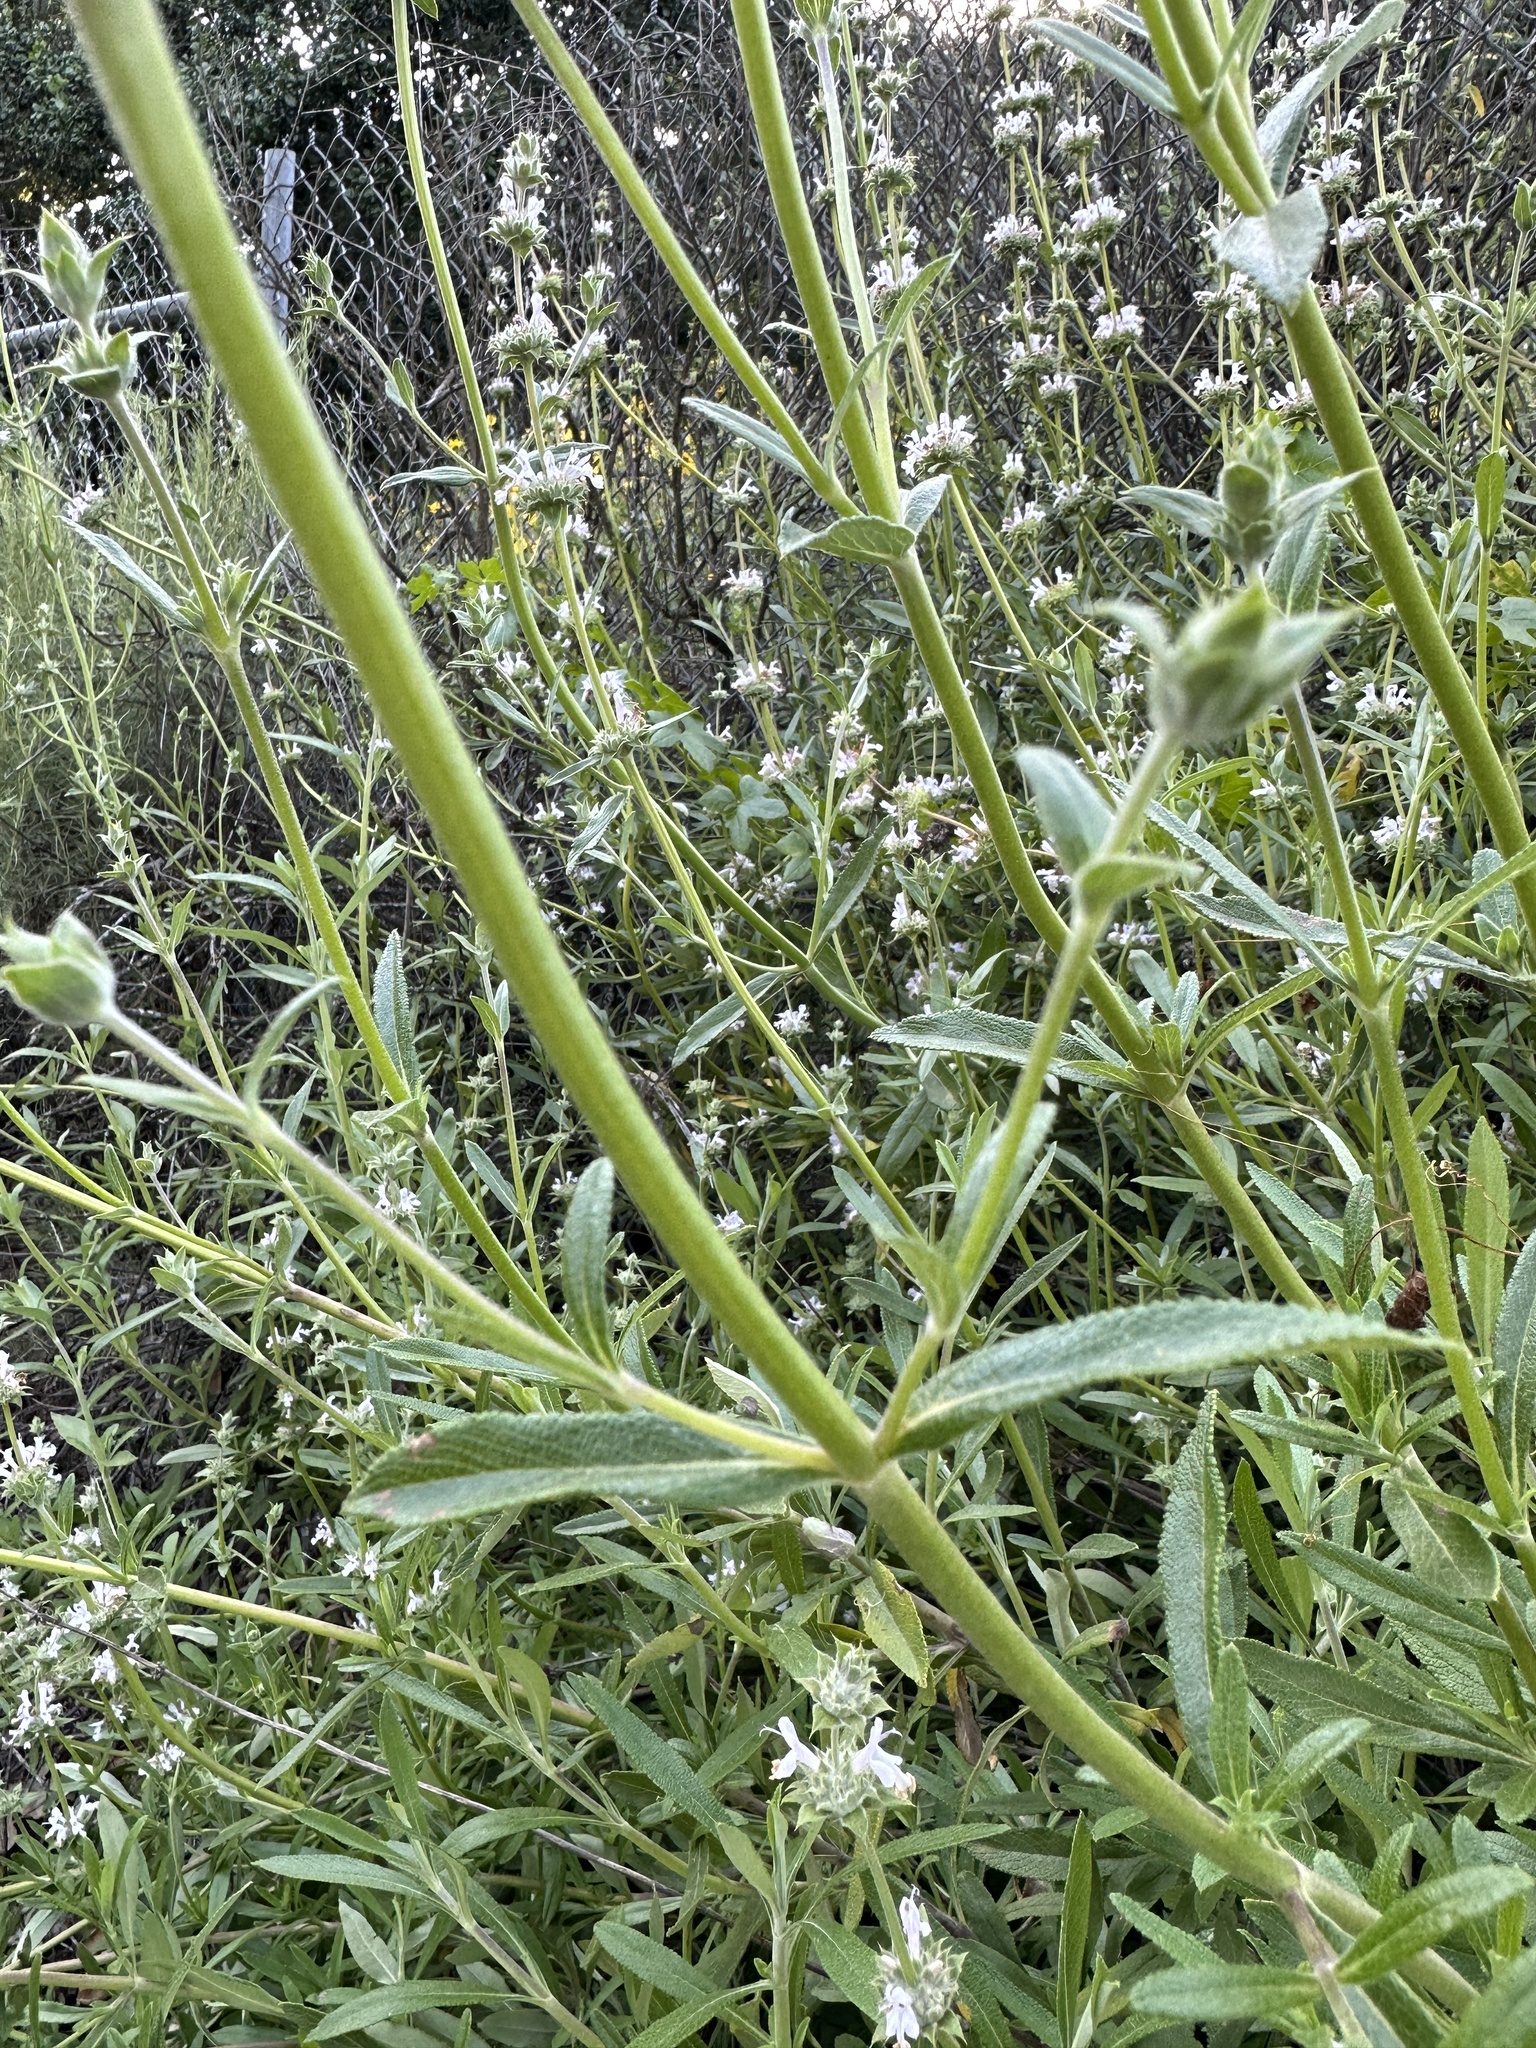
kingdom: Plantae
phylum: Tracheophyta
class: Magnoliopsida
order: Lamiales
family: Lamiaceae
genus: Salvia
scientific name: Salvia mellifera
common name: Black sage
